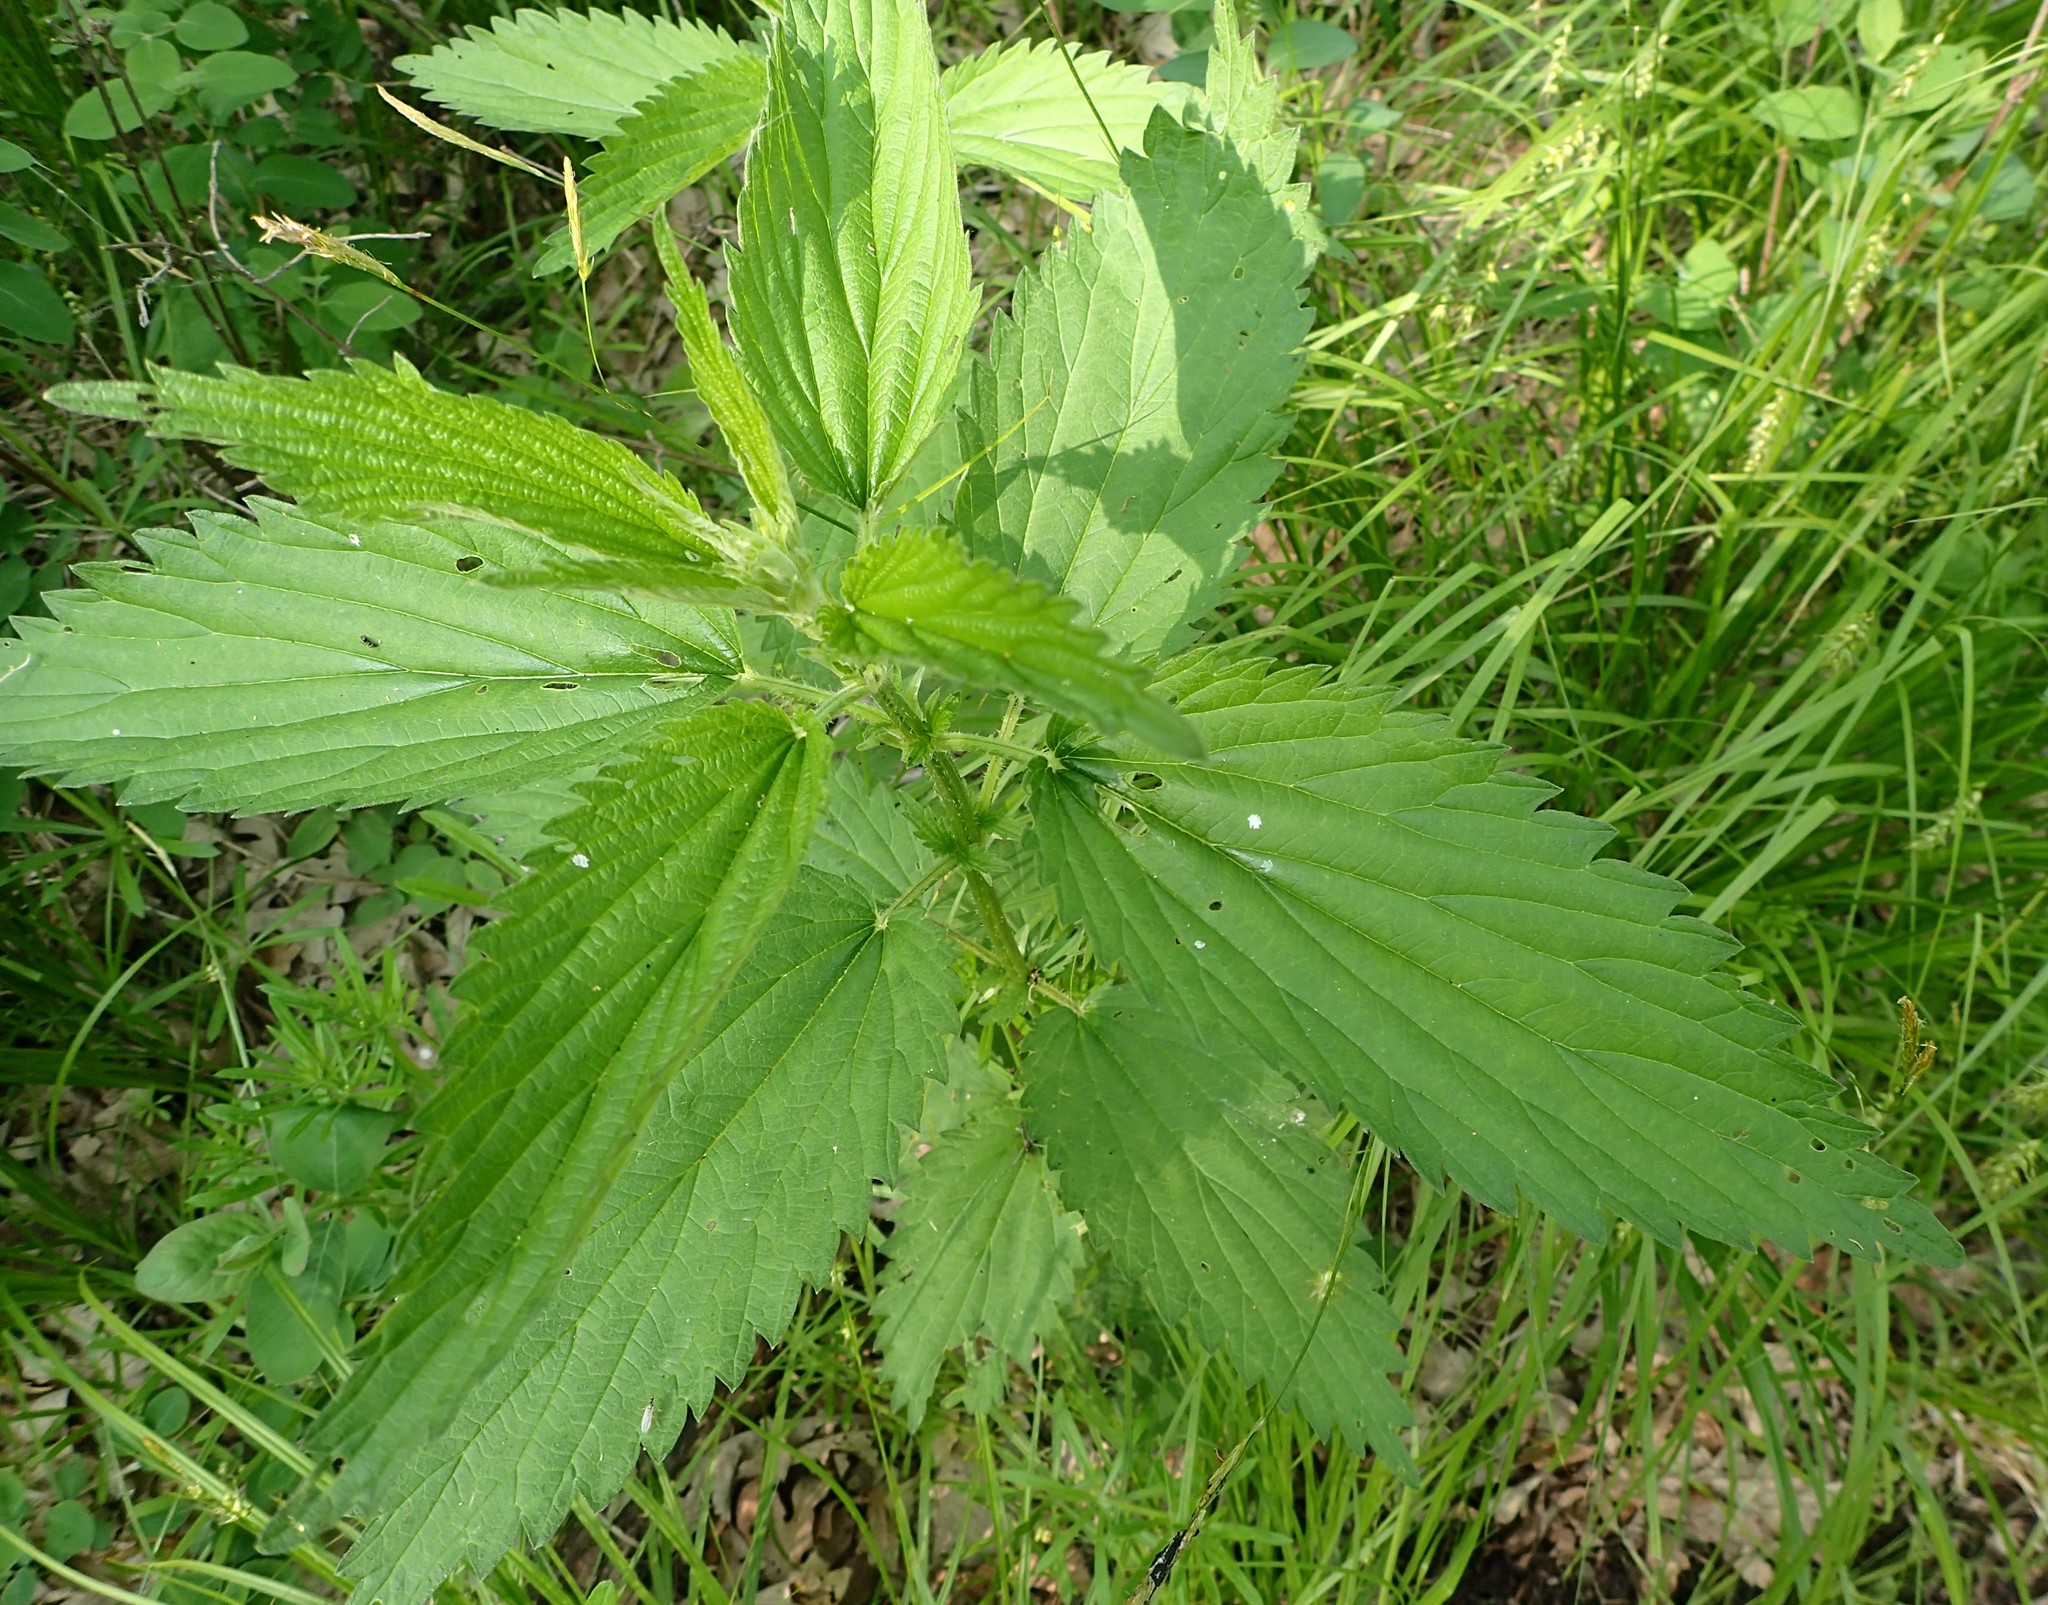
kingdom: Plantae
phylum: Tracheophyta
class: Magnoliopsida
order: Rosales
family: Urticaceae
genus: Urtica
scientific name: Urtica dioica
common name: Common nettle
